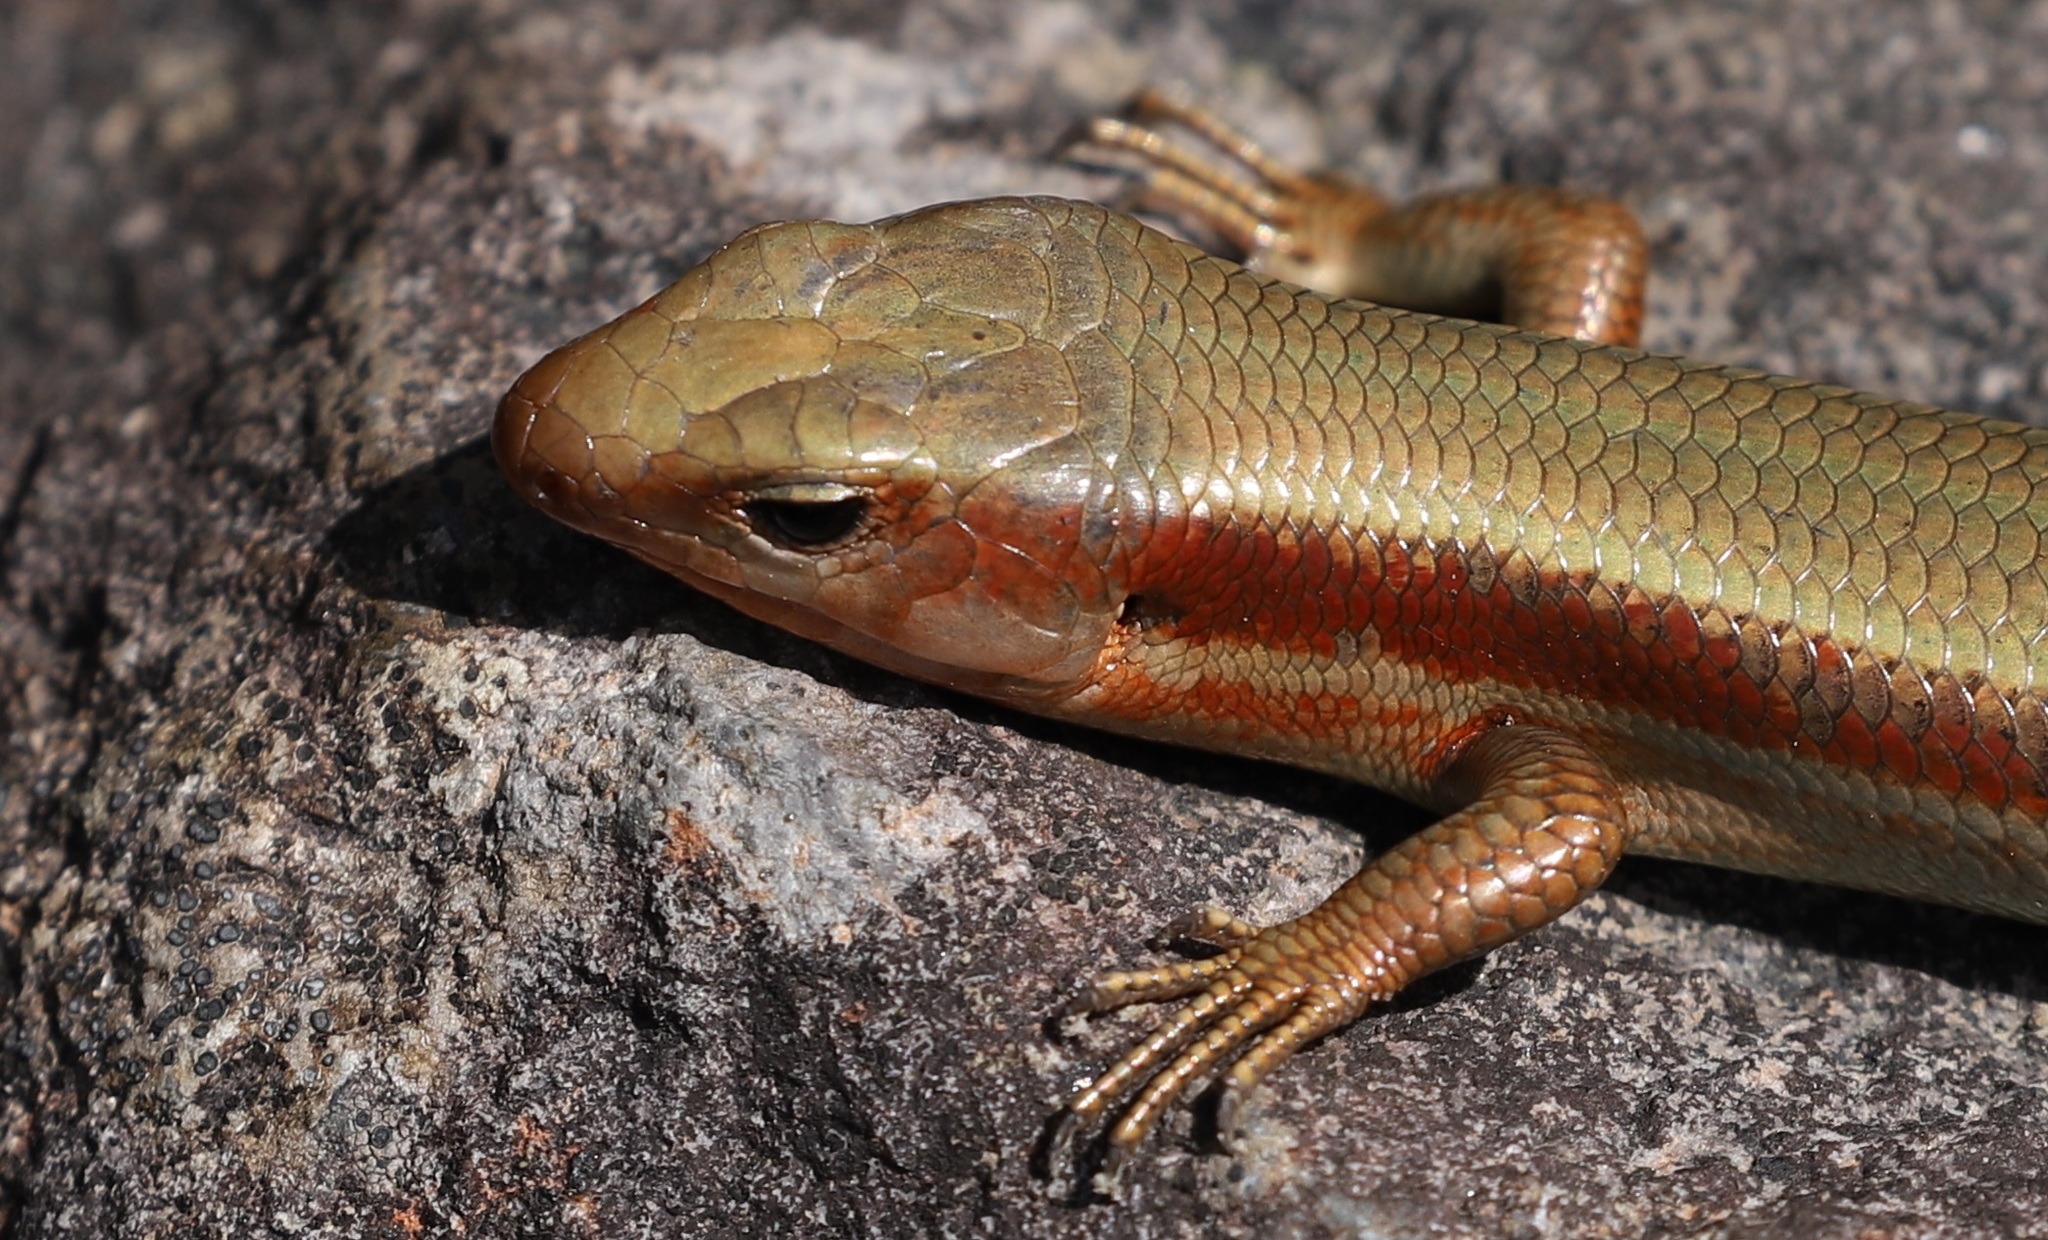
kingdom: Animalia
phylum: Chordata
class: Squamata
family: Scincidae
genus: Plestiodon
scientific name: Plestiodon finitimus
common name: Far eastern skink
